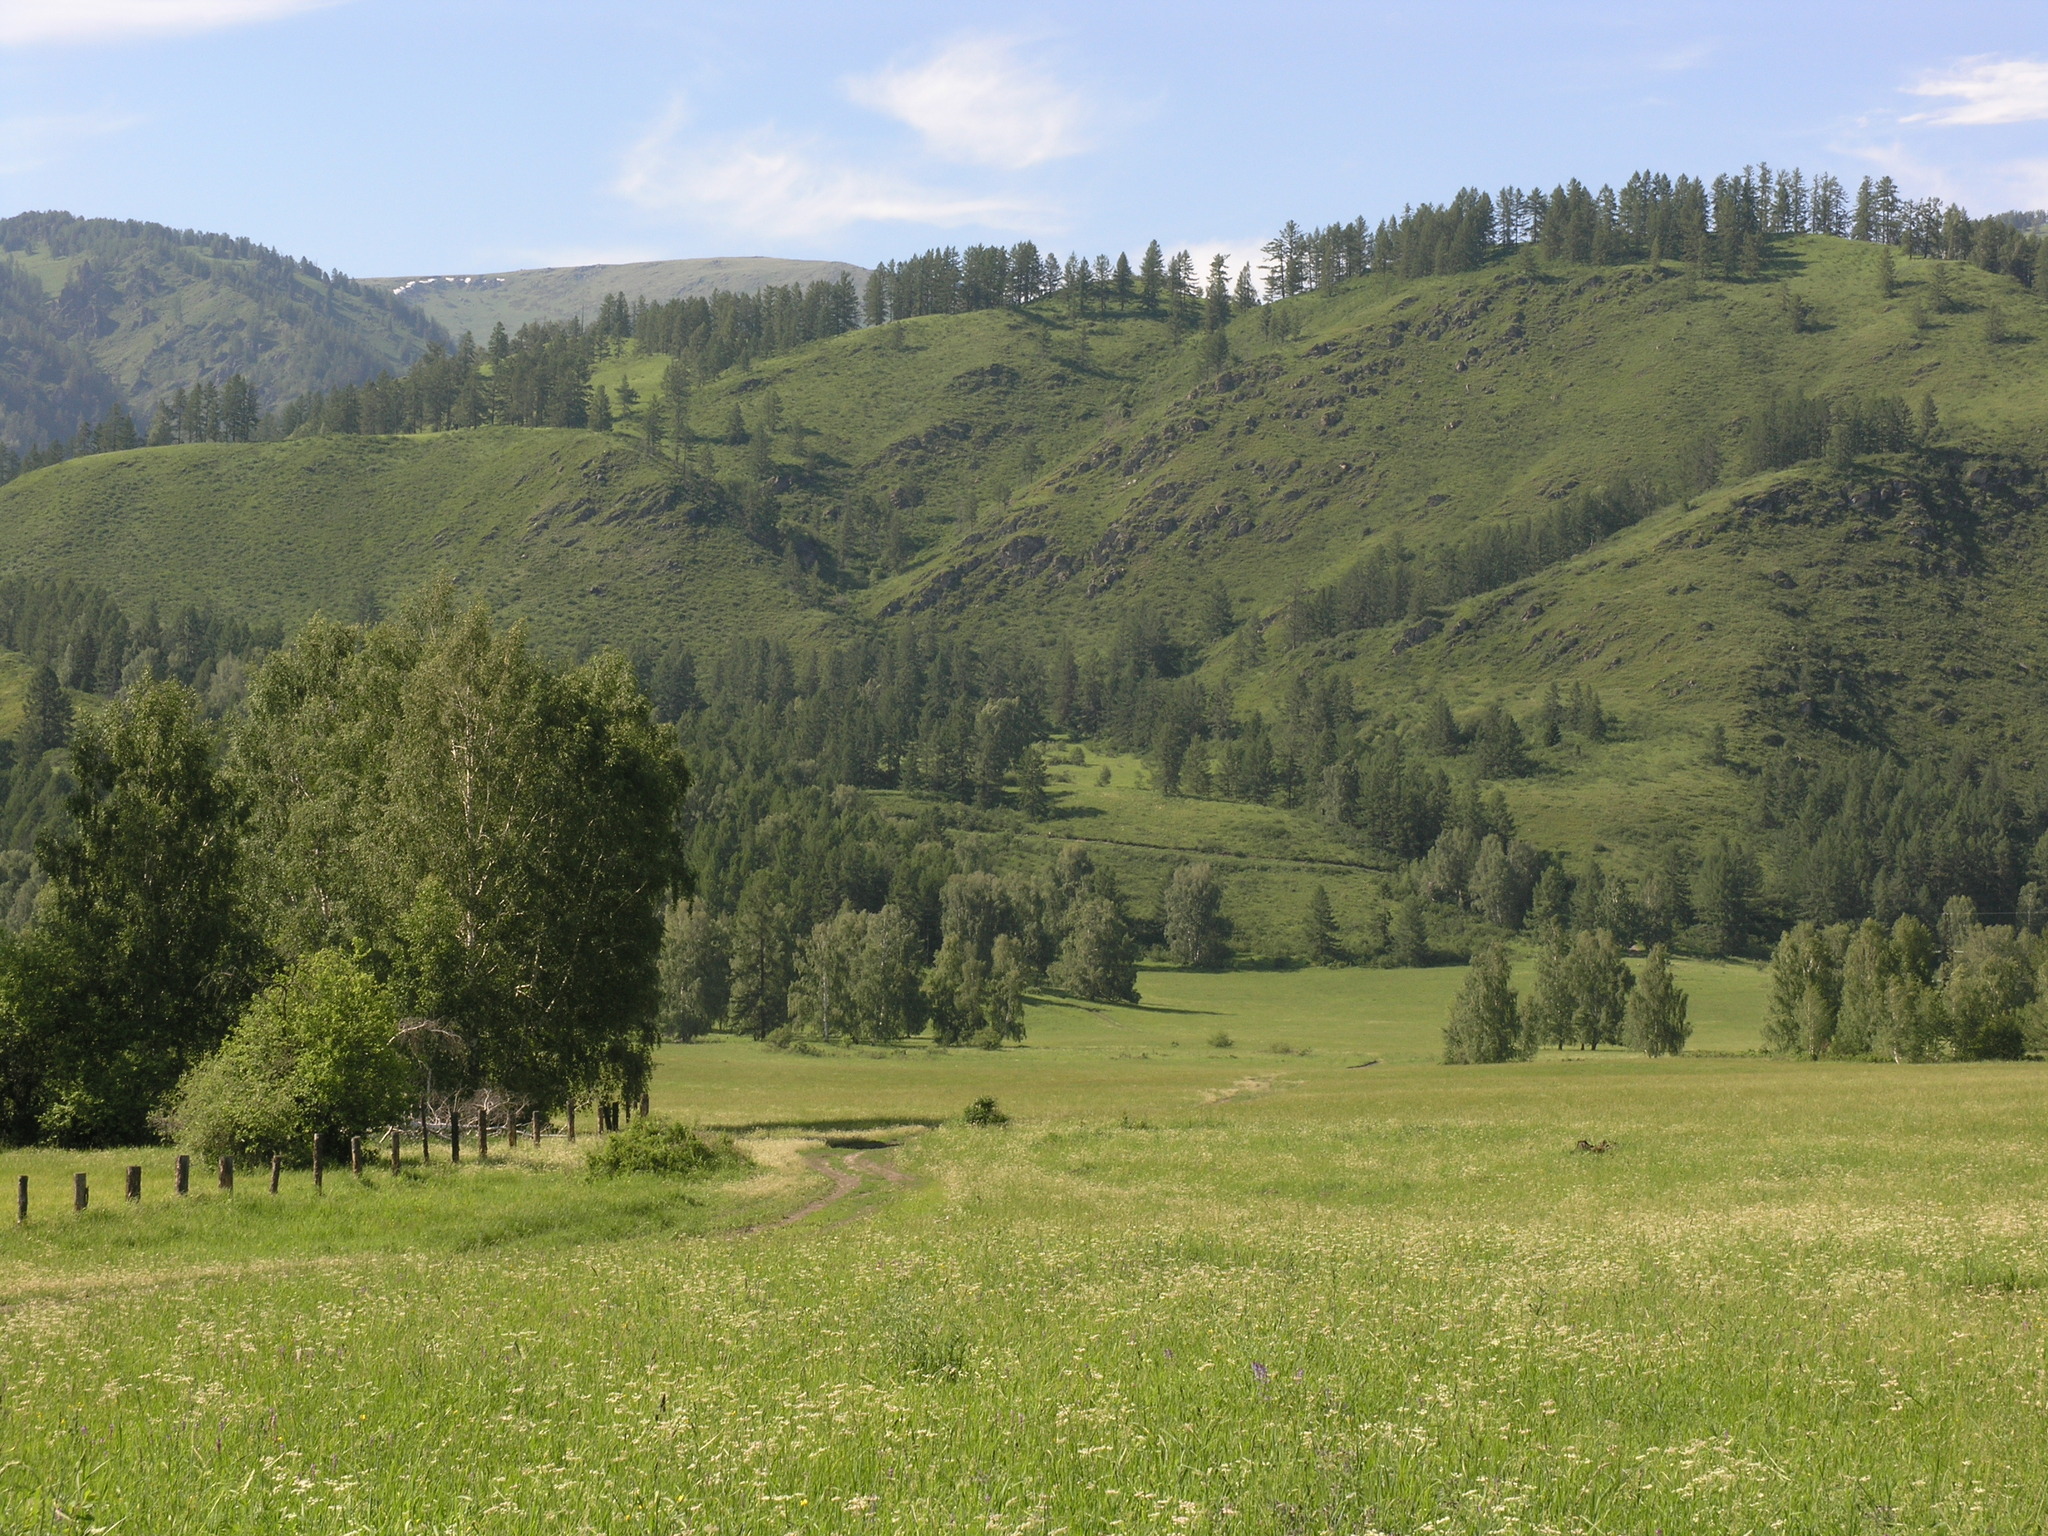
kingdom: Plantae
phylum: Tracheophyta
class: Magnoliopsida
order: Fagales
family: Betulaceae
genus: Betula
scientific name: Betula pendula
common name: Silver birch
